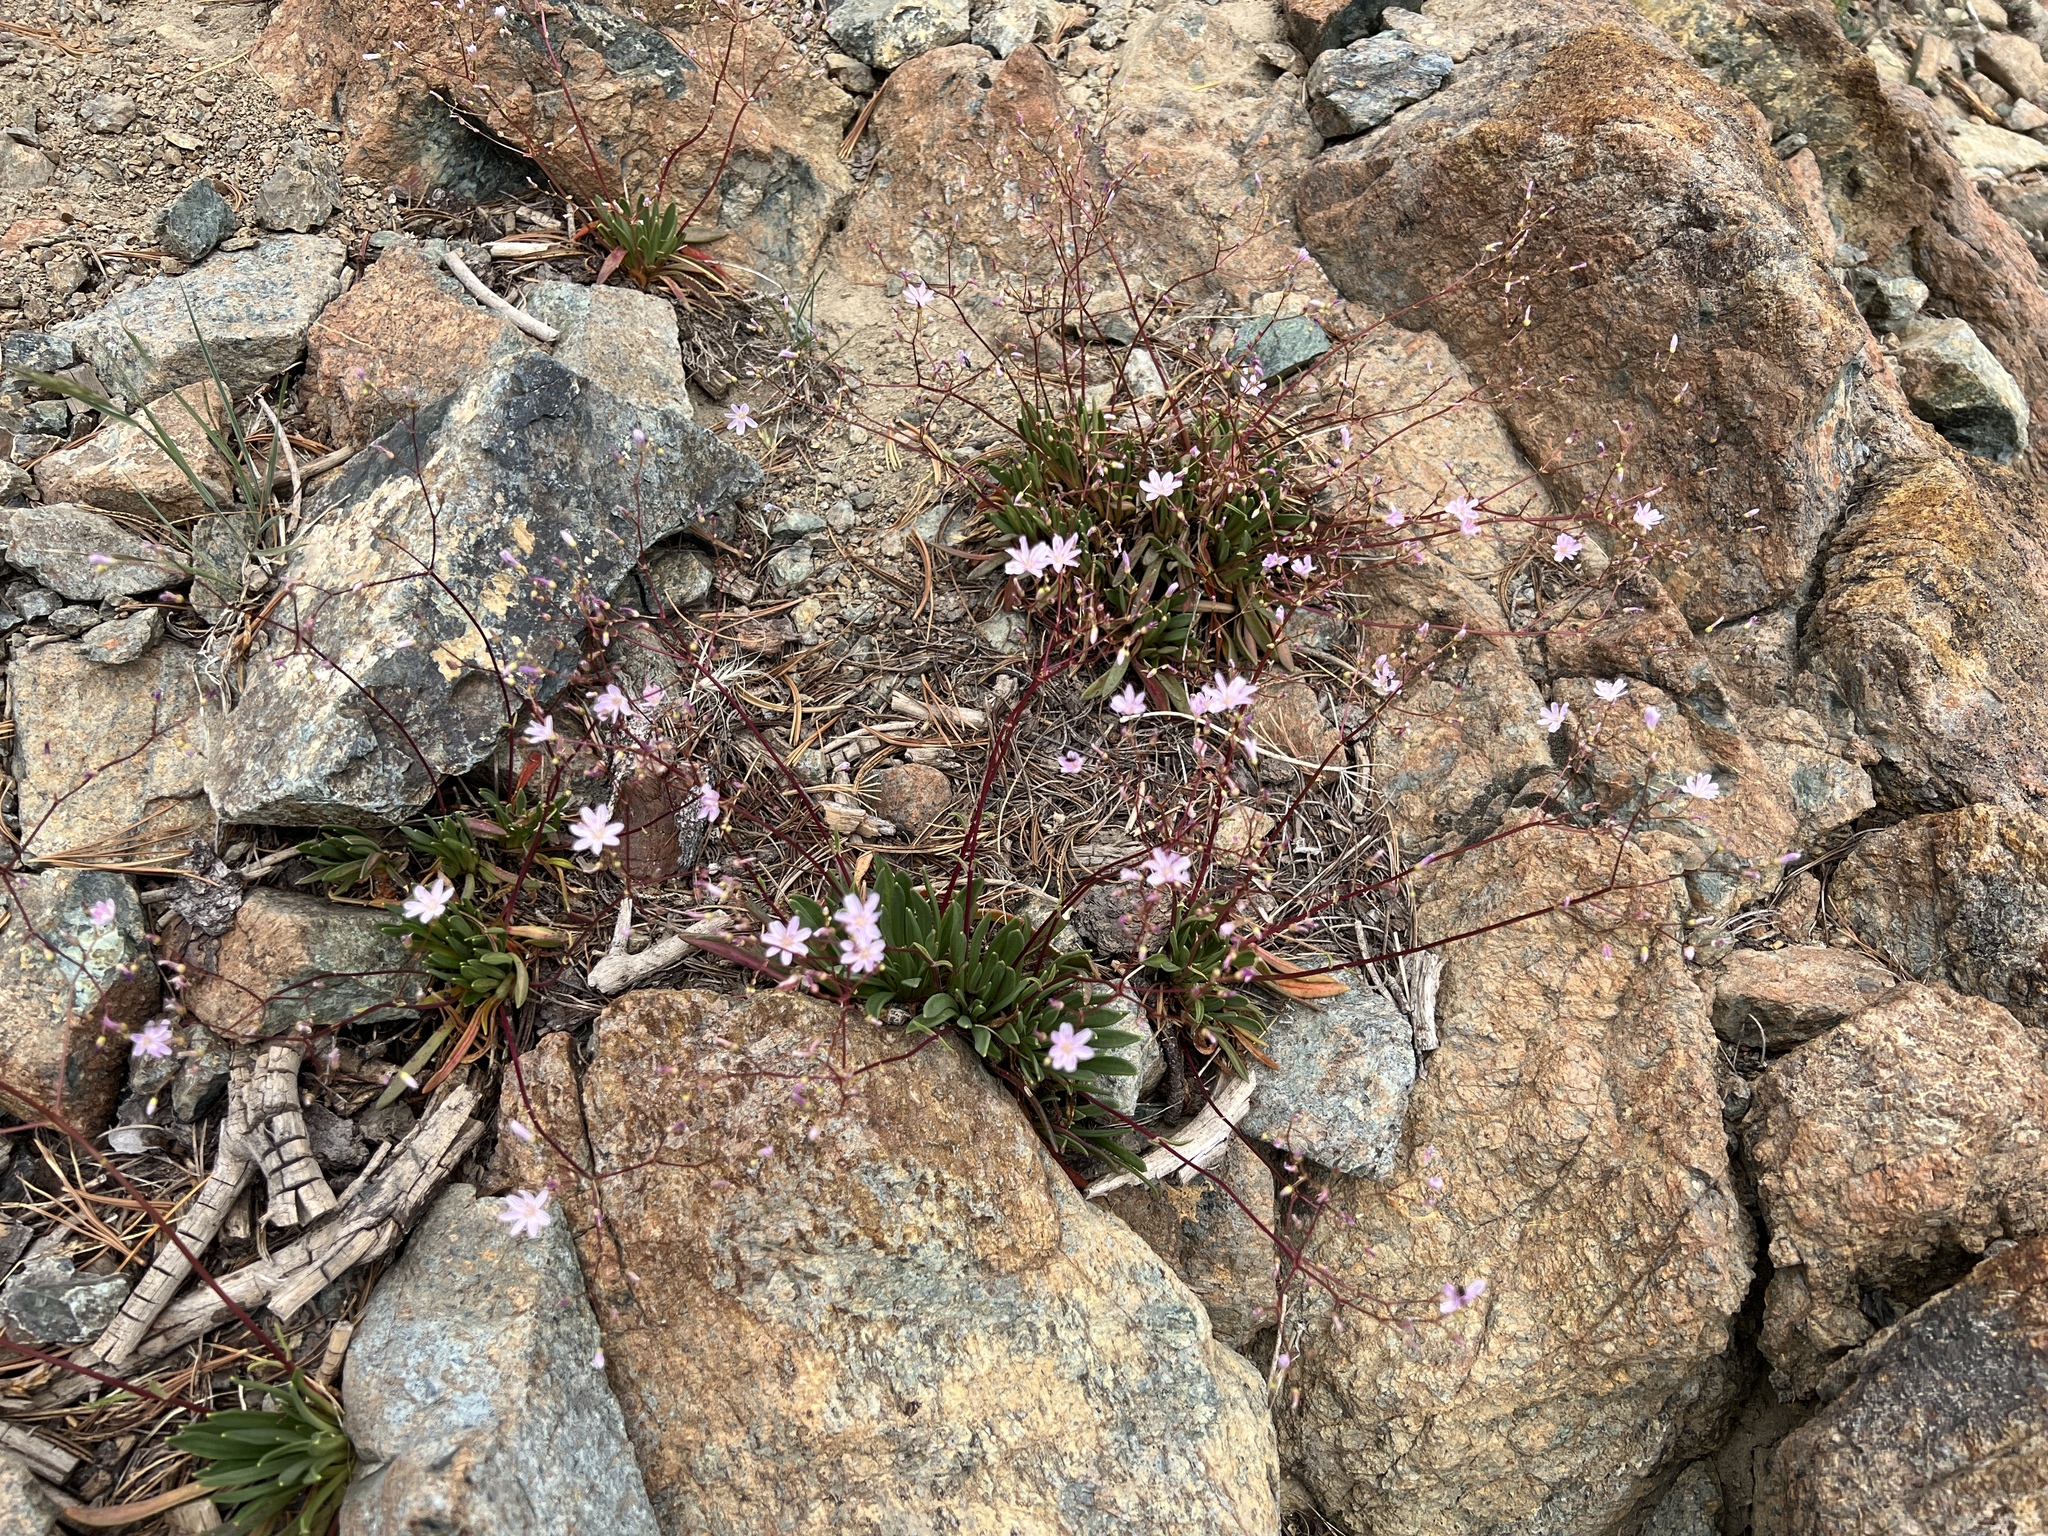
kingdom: Plantae
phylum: Tracheophyta
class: Magnoliopsida
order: Caryophyllales
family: Montiaceae
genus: Lewisia
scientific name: Lewisia columbiana
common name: Columbia lewisia
